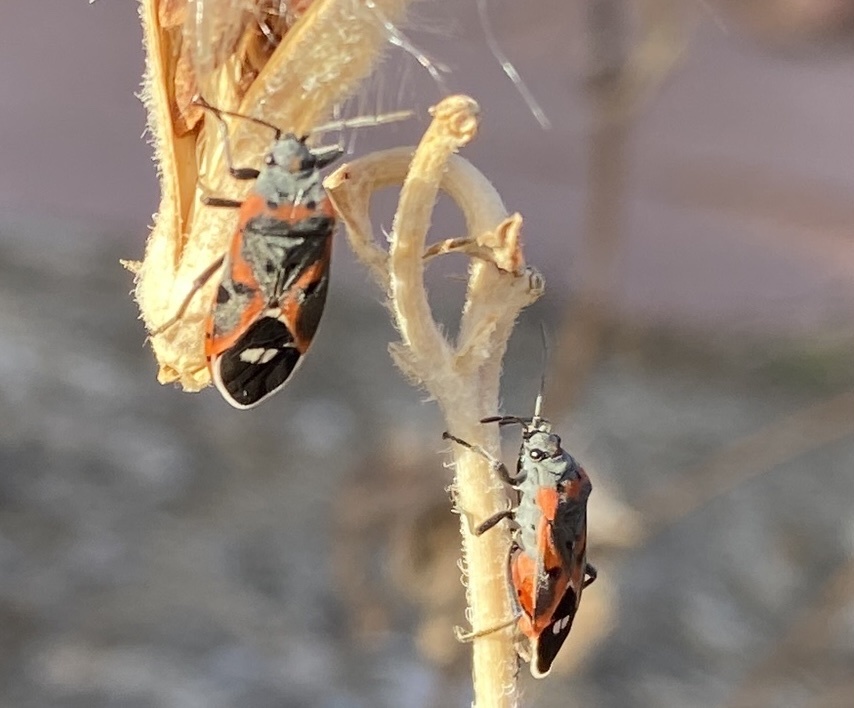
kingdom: Animalia
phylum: Arthropoda
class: Insecta
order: Hemiptera
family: Lygaeidae
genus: Lygaeus
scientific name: Lygaeus kalmii
